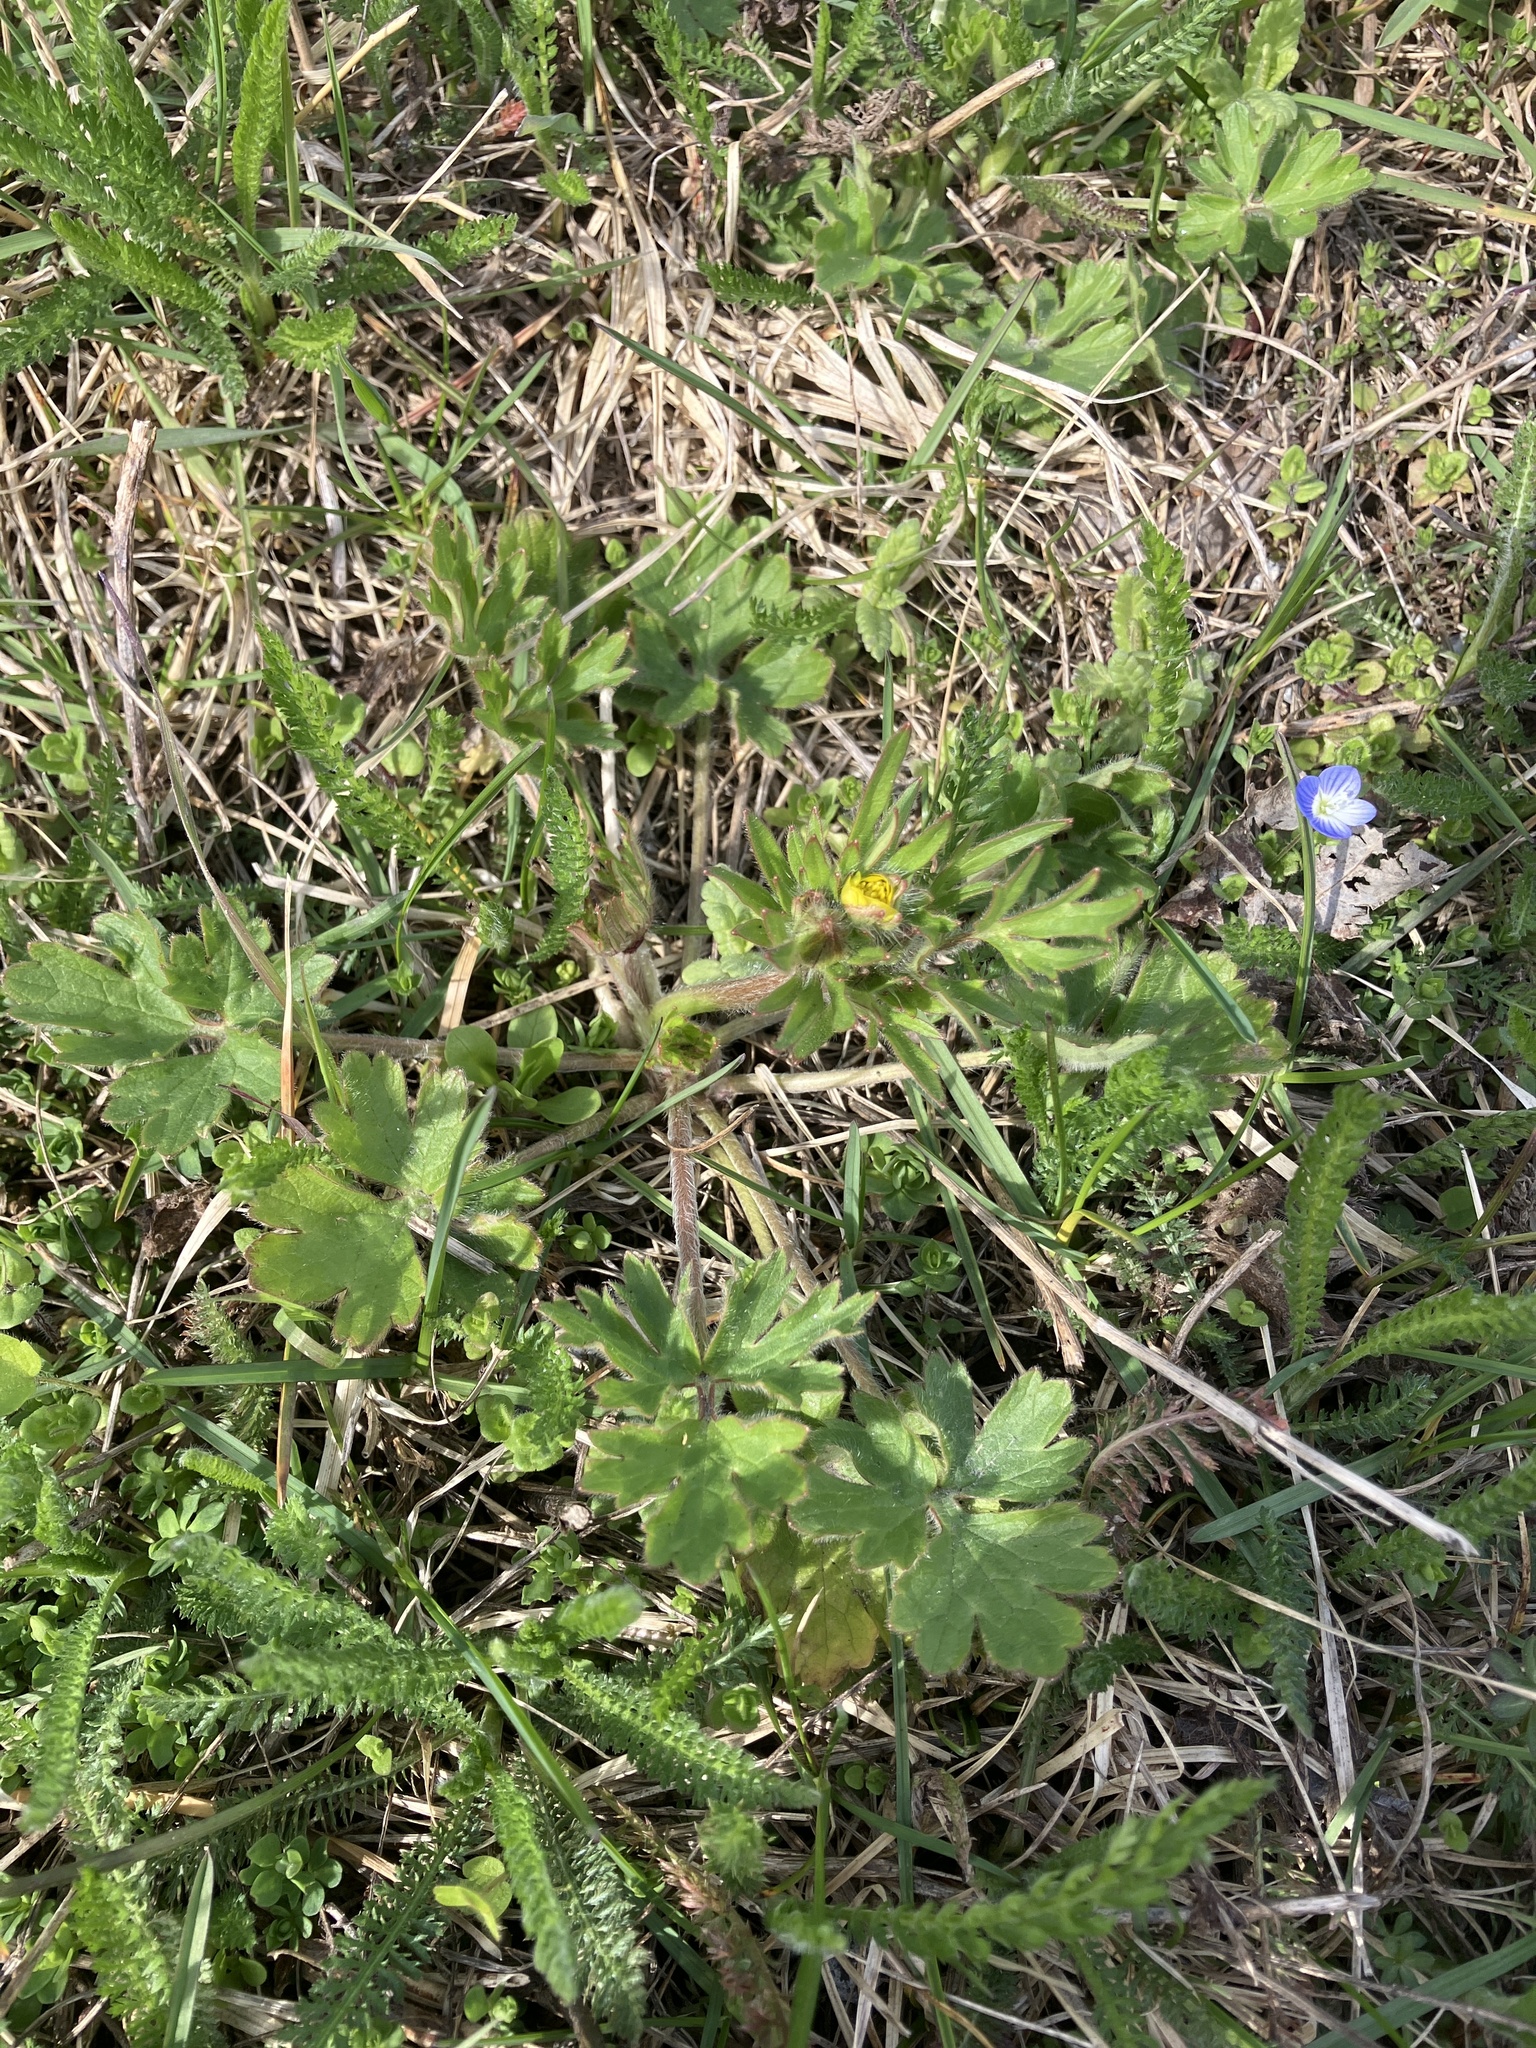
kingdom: Plantae
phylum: Tracheophyta
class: Magnoliopsida
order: Ranunculales
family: Ranunculaceae
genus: Ranunculus
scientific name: Ranunculus bulbosus
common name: Bulbous buttercup
